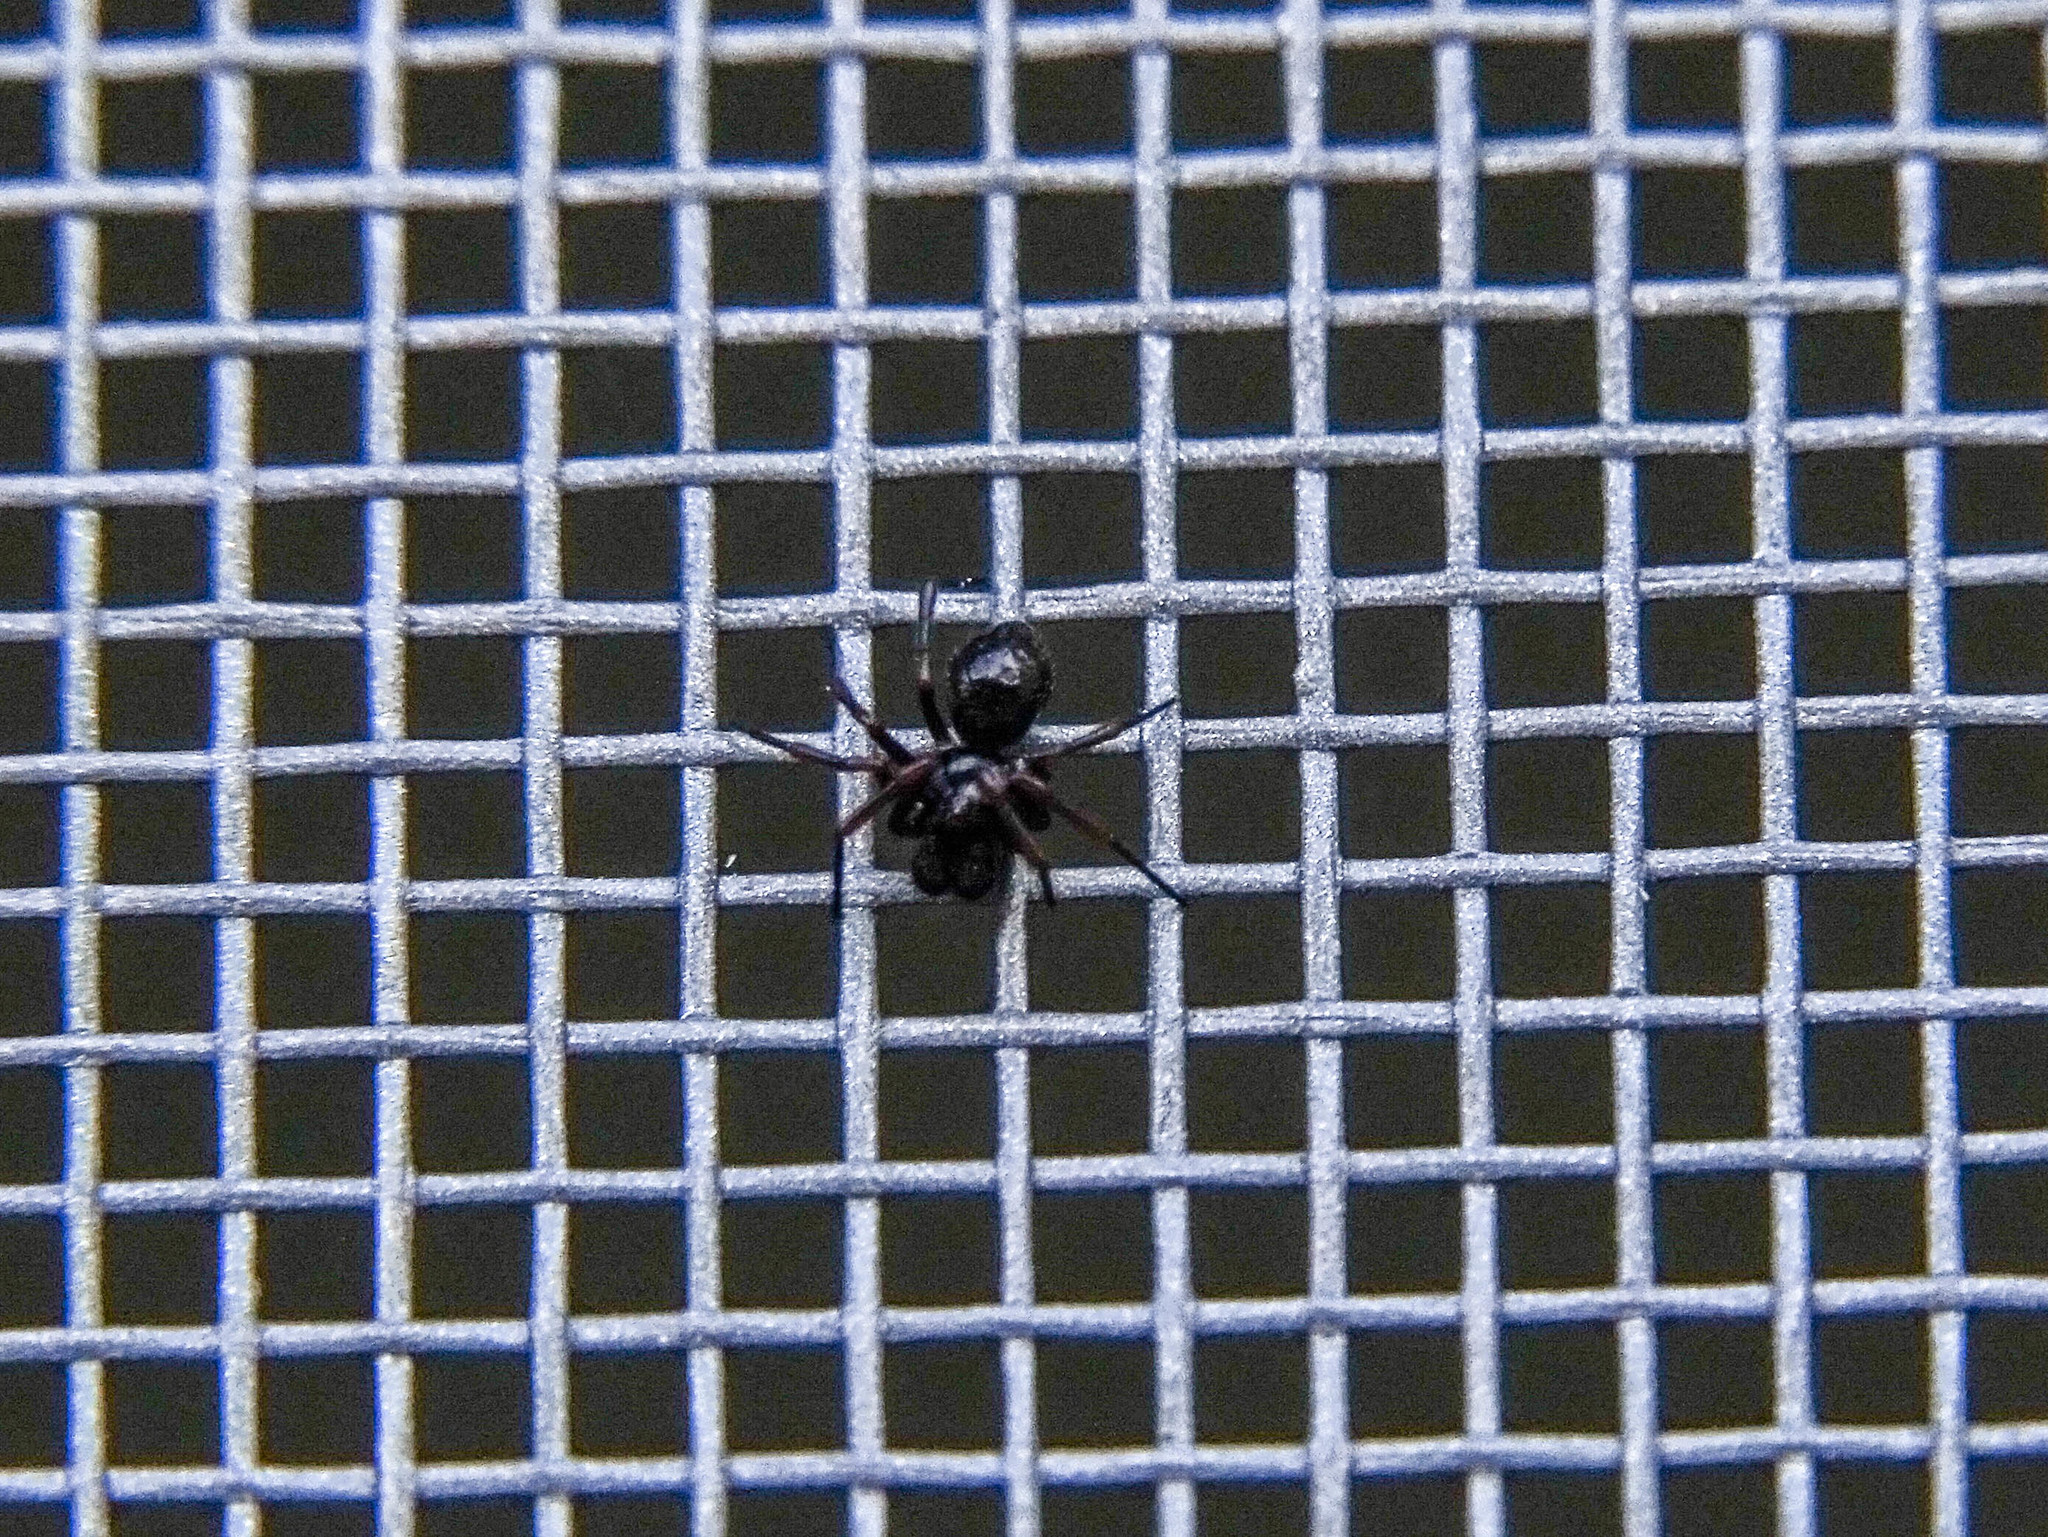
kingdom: Animalia
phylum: Arthropoda
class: Arachnida
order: Araneae
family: Theridiidae
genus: Euryopis
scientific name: Euryopis episinoides
